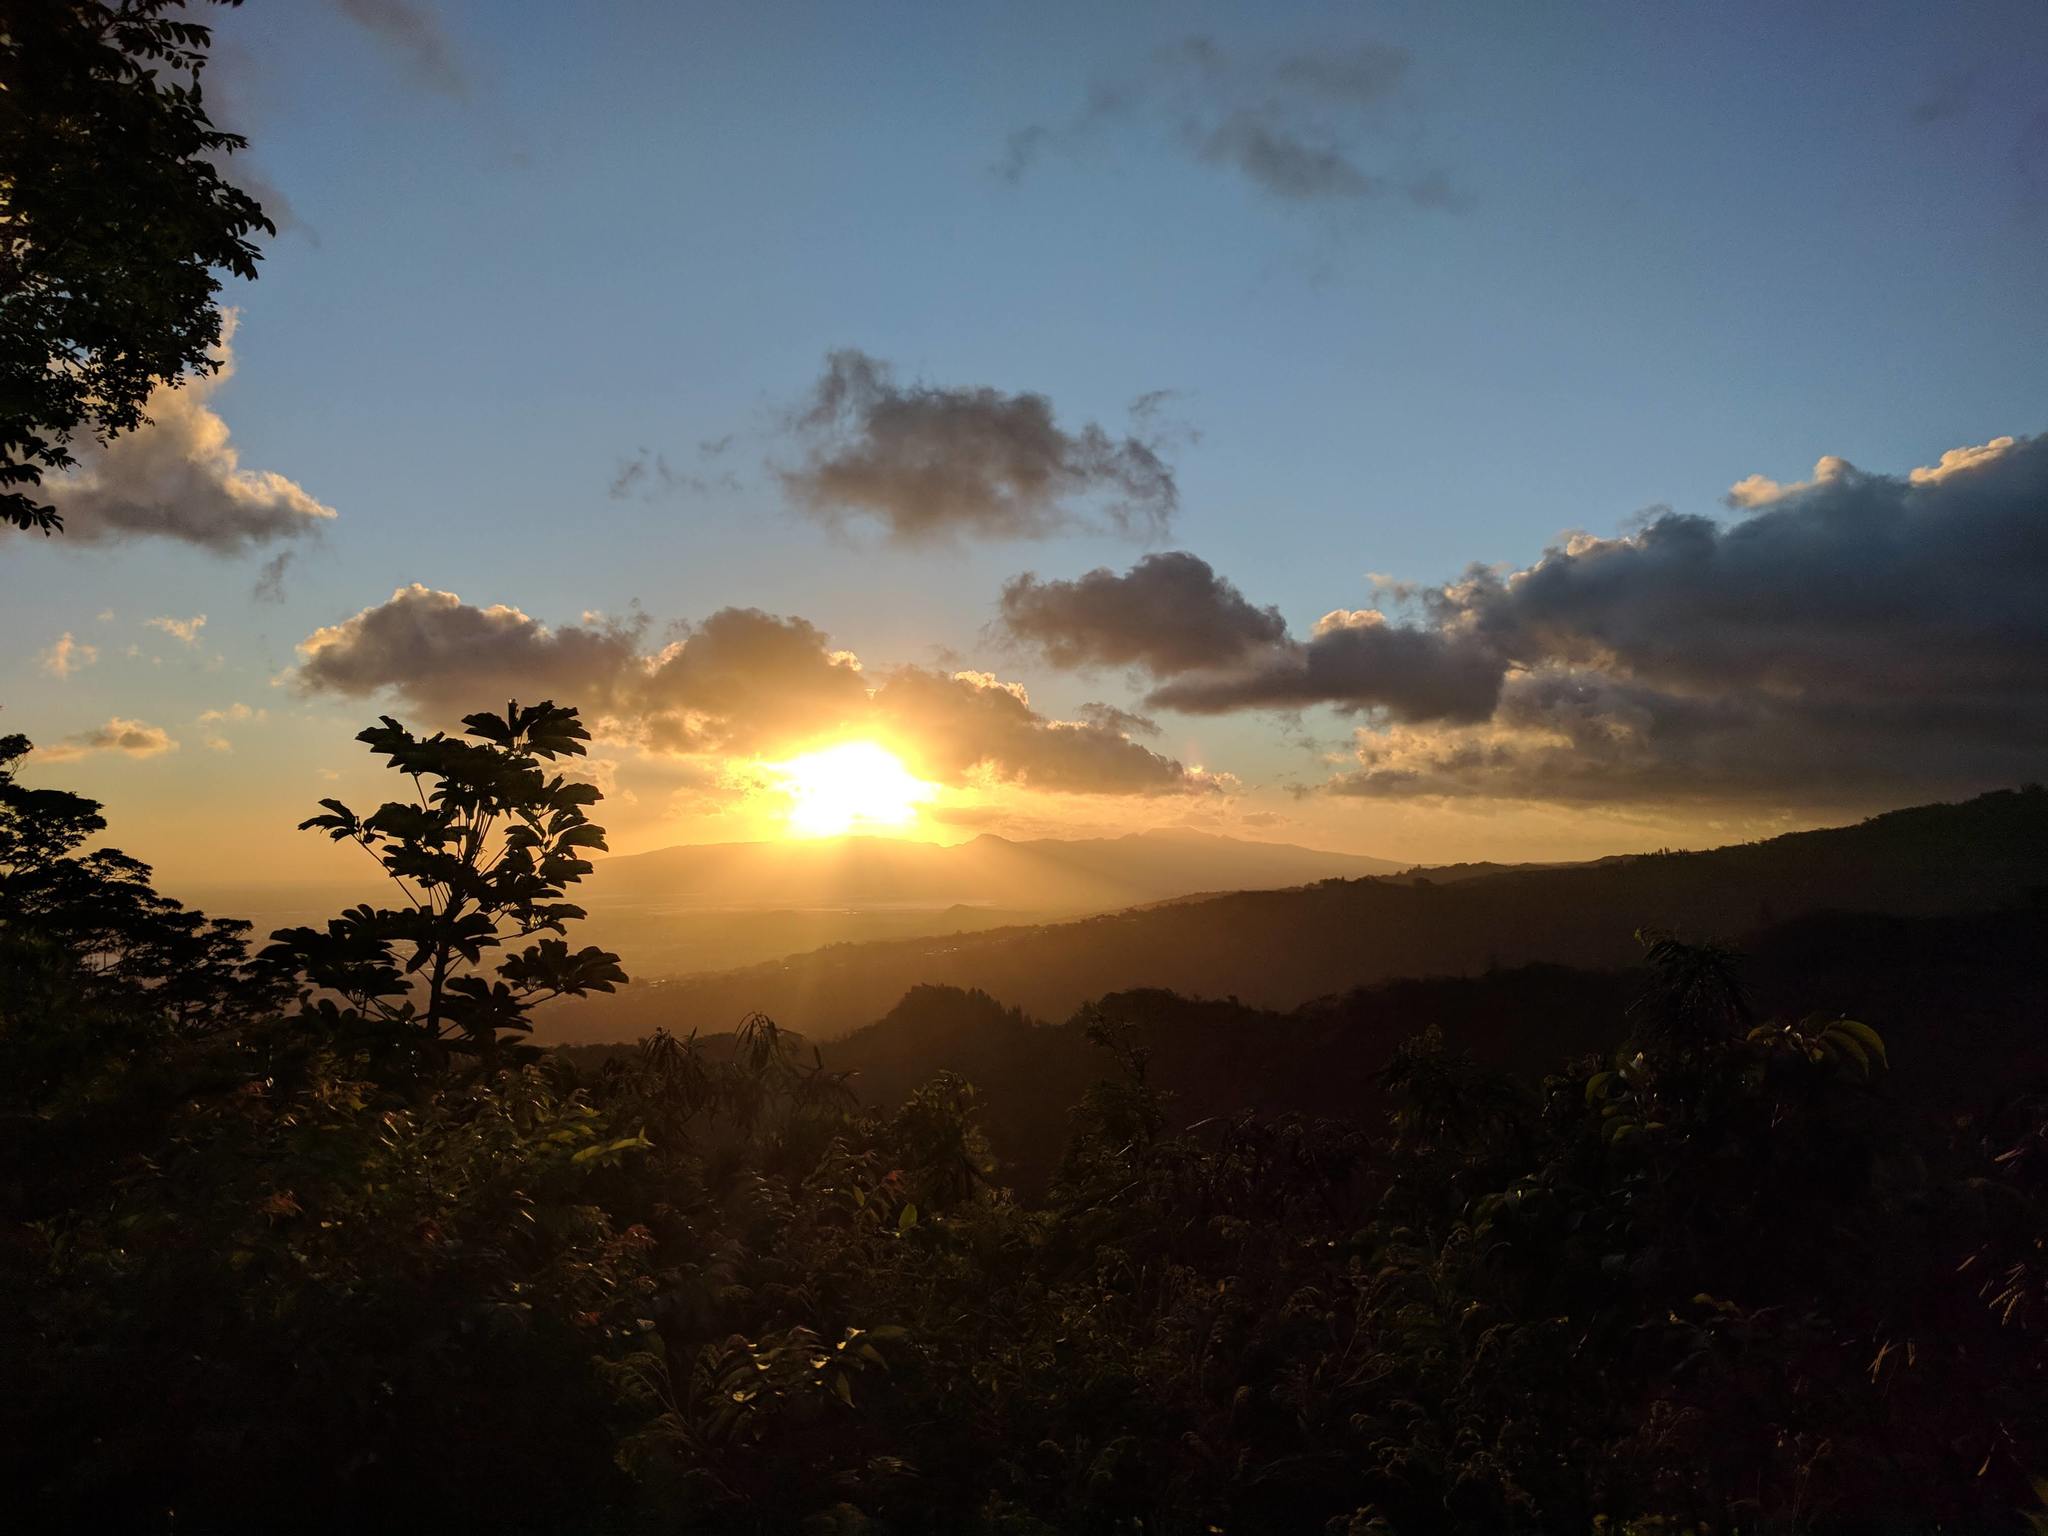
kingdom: Plantae
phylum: Tracheophyta
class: Magnoliopsida
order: Apiales
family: Araliaceae
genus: Heptapleurum
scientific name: Heptapleurum actinophyllum
